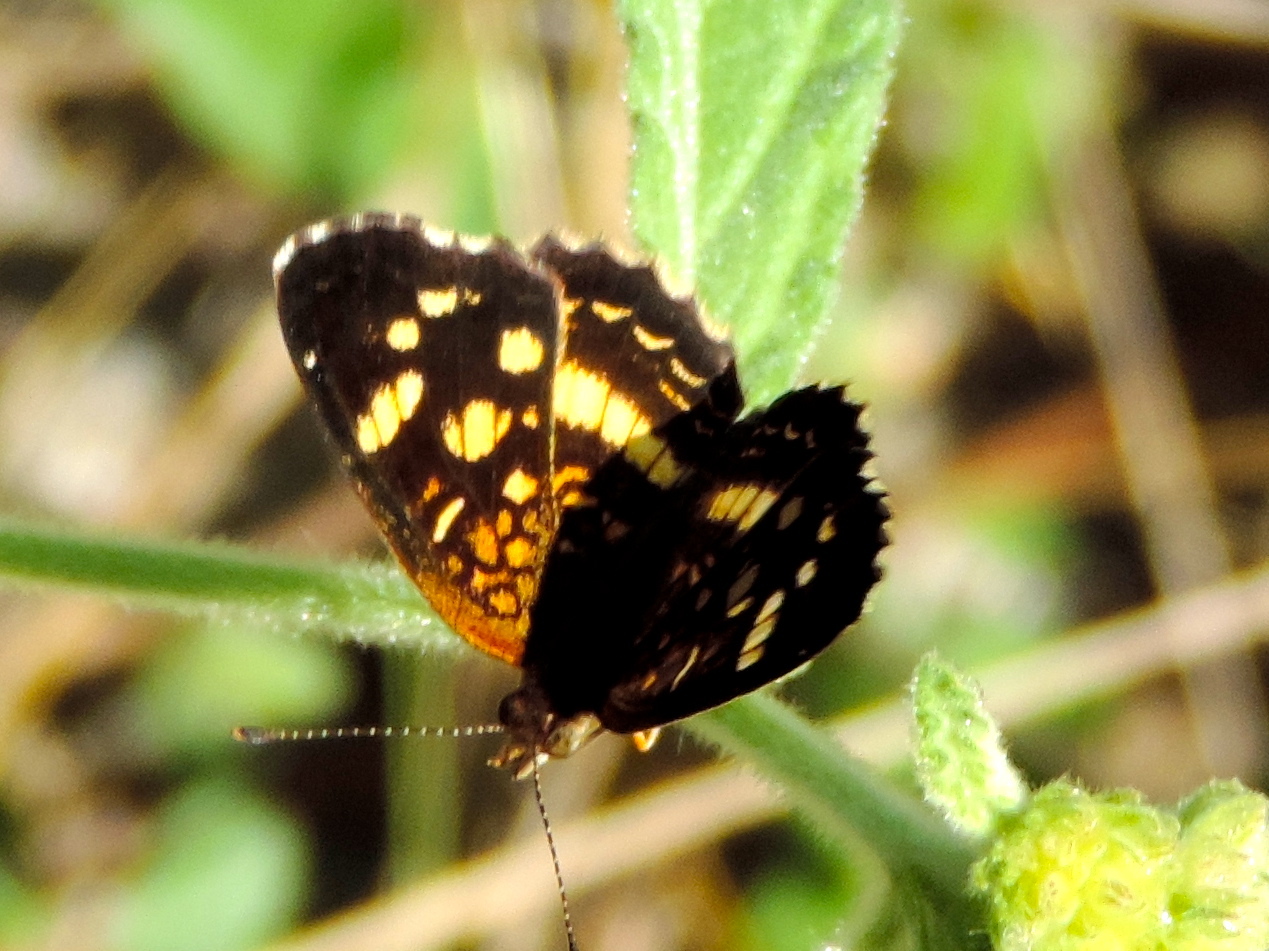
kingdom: Animalia
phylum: Arthropoda
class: Insecta
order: Lepidoptera
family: Nymphalidae
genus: Anthanassa
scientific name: Anthanassa tulcis
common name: Pale-banded crescent
